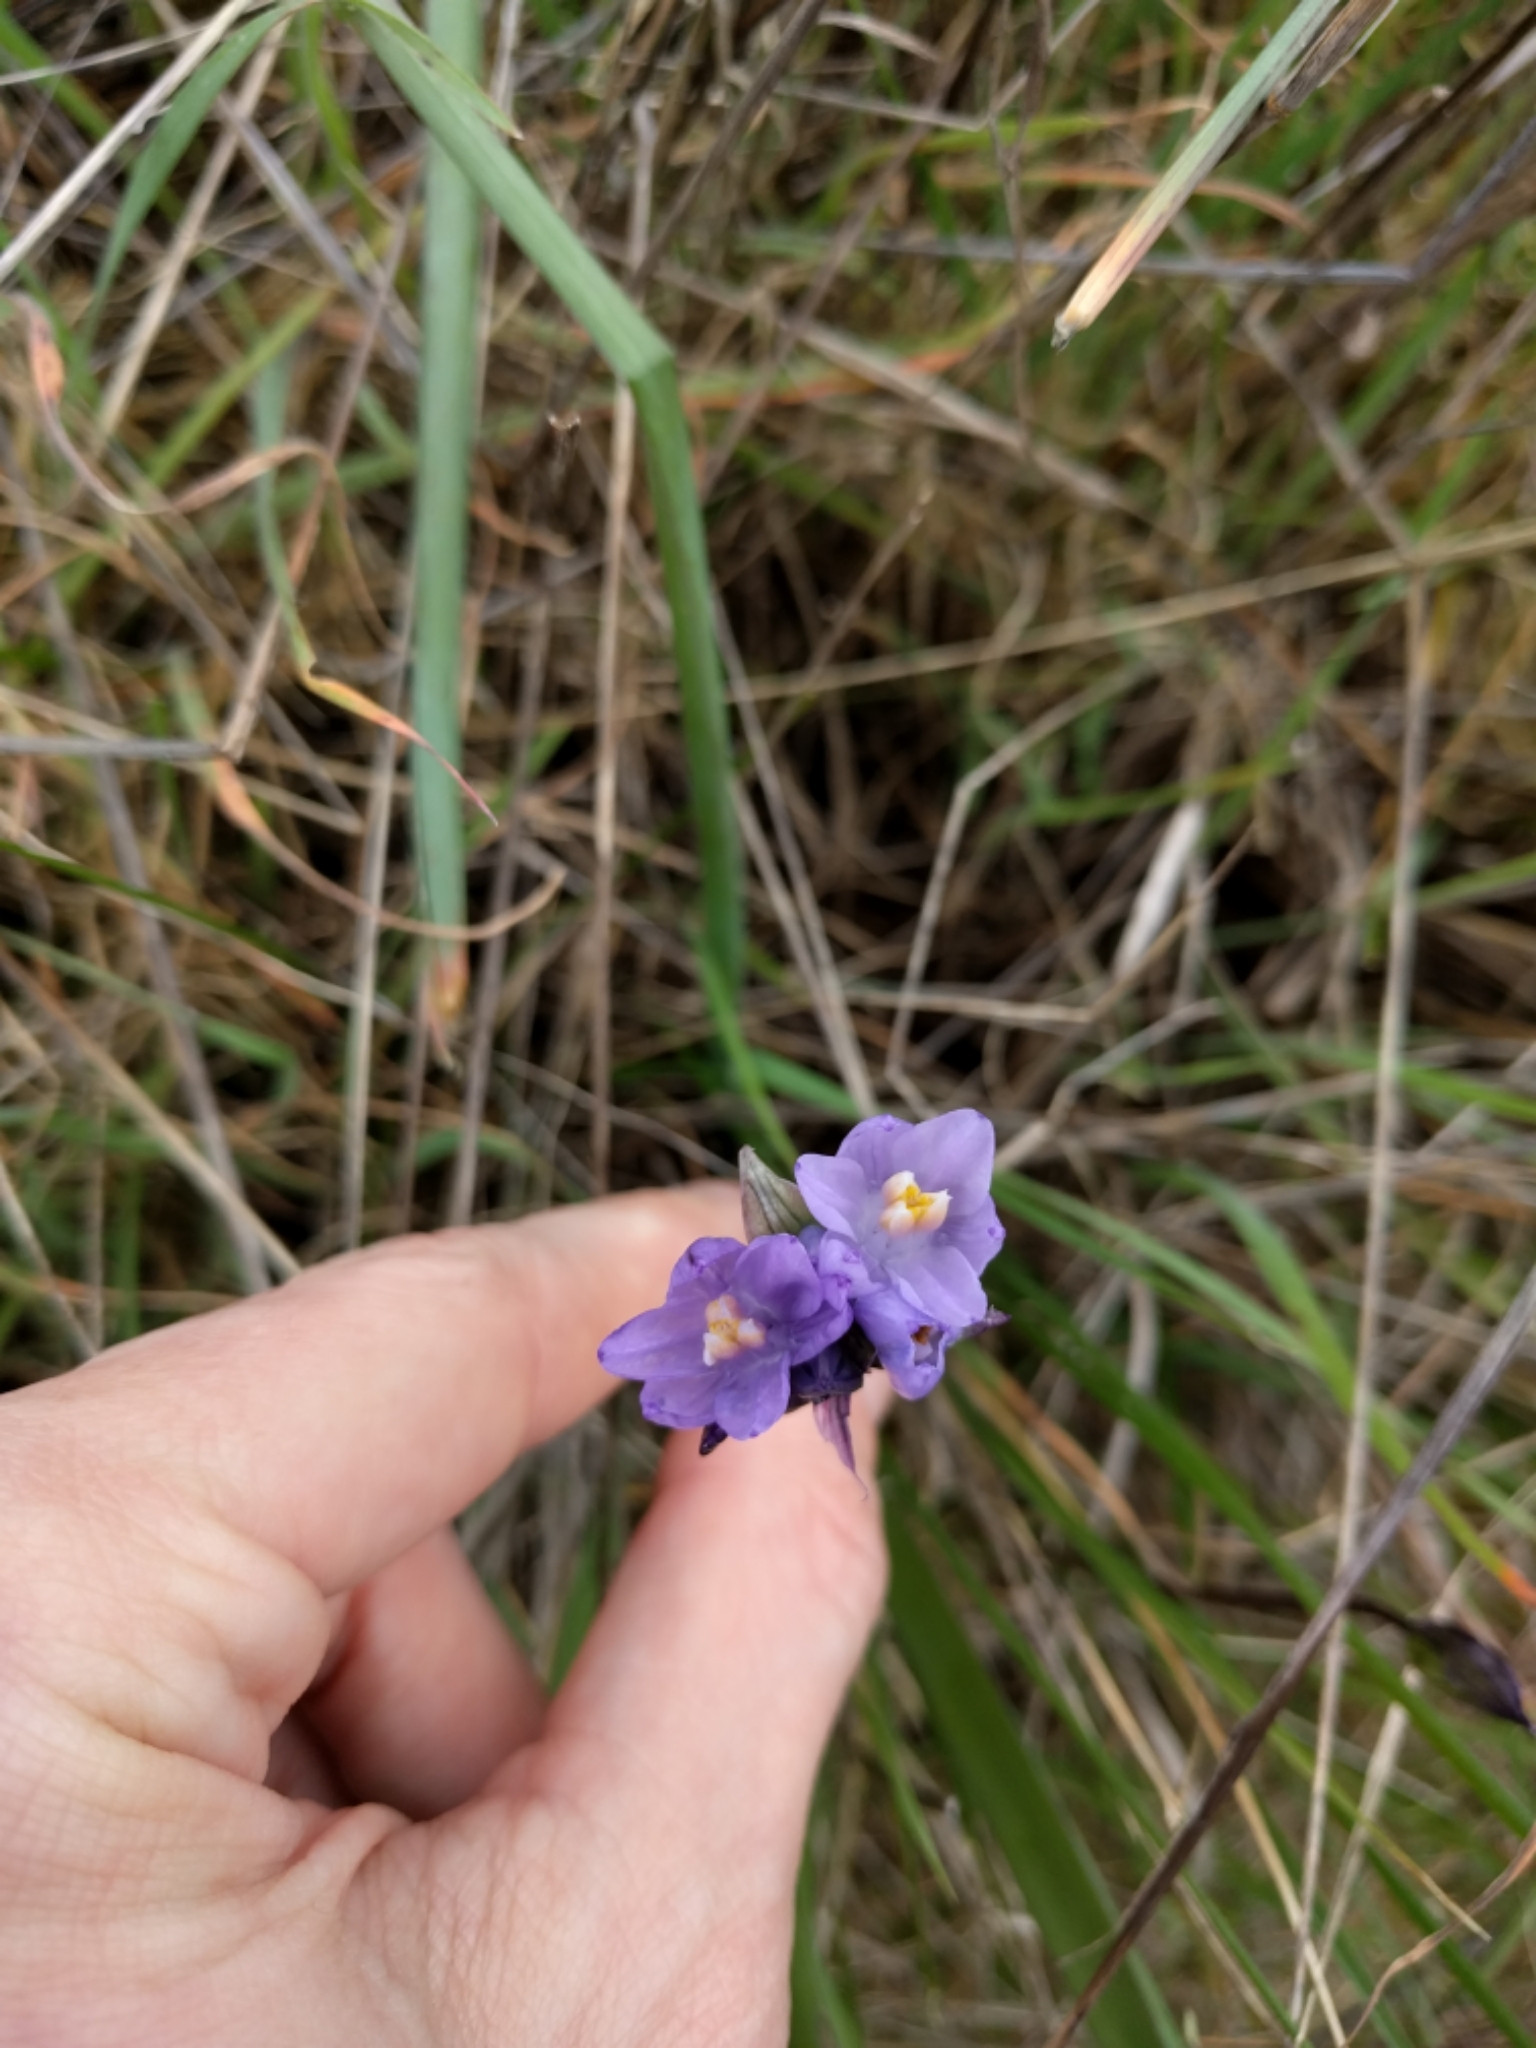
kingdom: Plantae
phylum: Tracheophyta
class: Liliopsida
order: Asparagales
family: Asparagaceae
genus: Dipterostemon
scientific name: Dipterostemon capitatus
